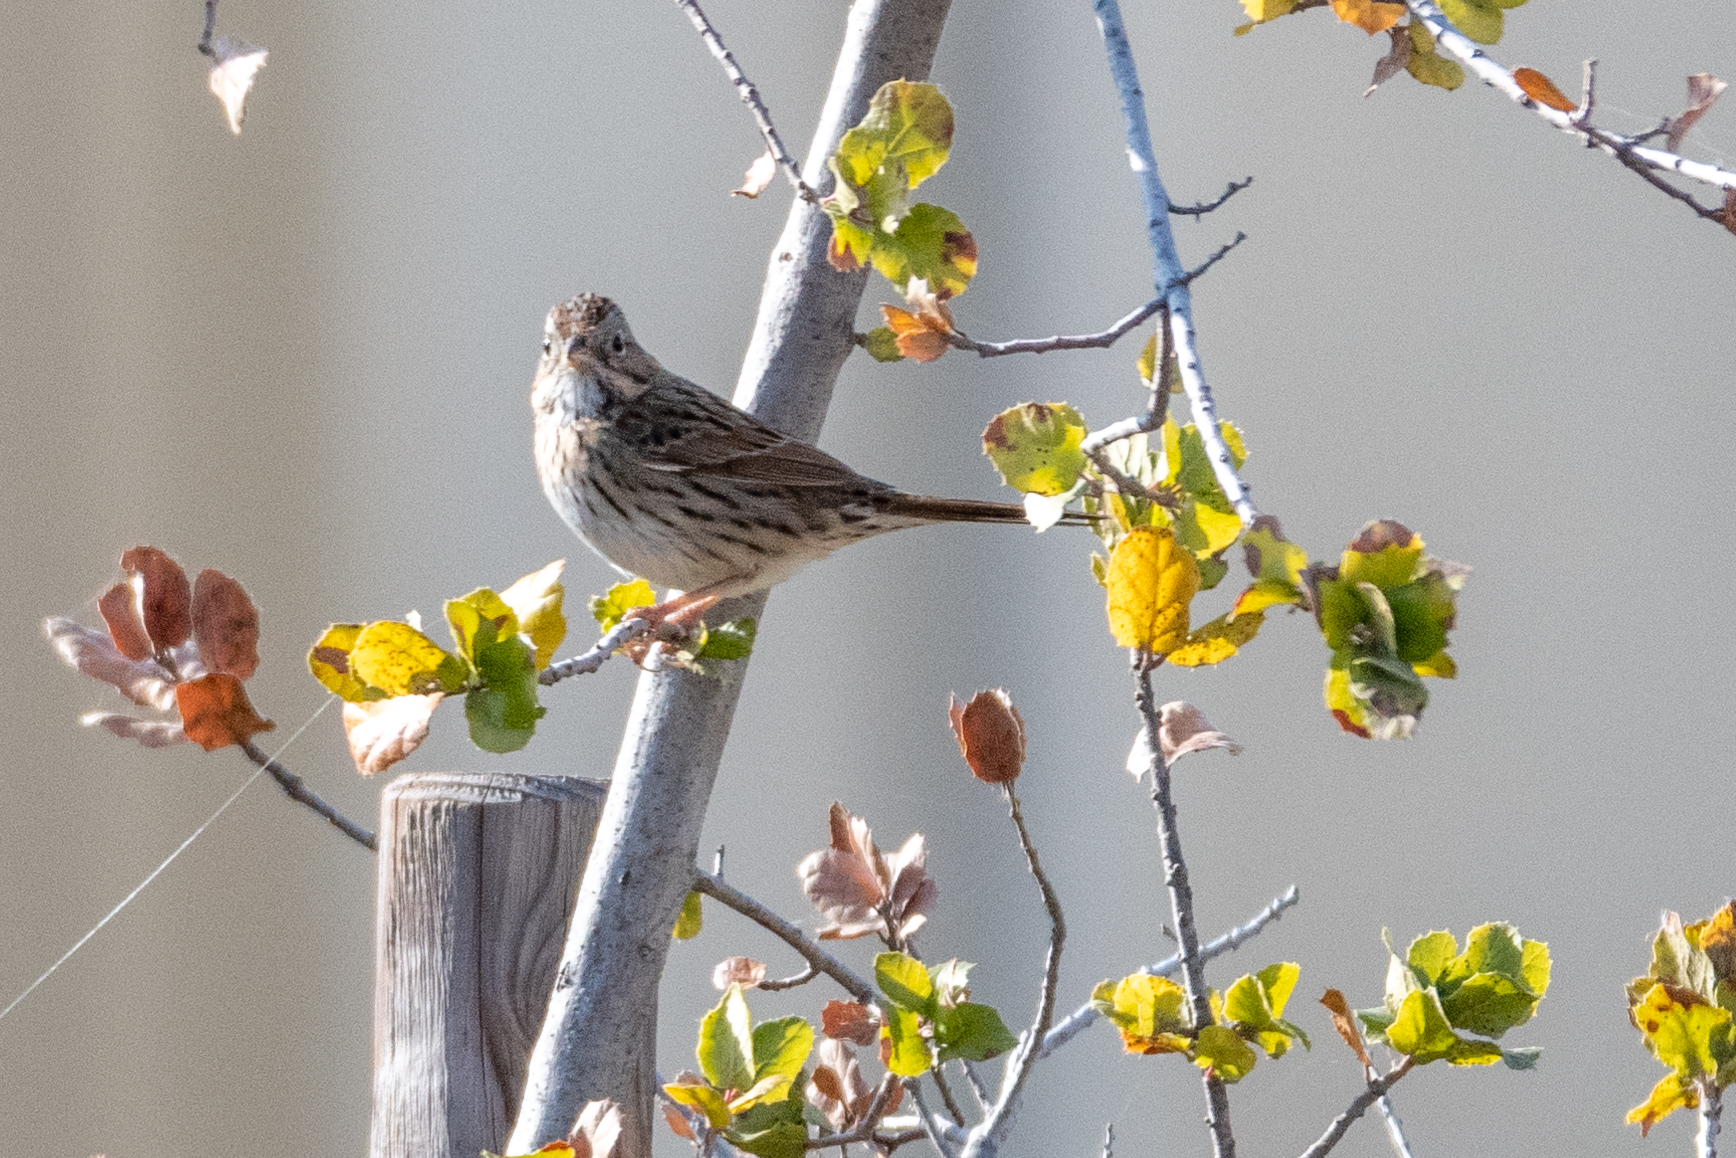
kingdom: Animalia
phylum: Chordata
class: Aves
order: Passeriformes
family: Passerellidae
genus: Melospiza
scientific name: Melospiza lincolnii
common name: Lincoln's sparrow
